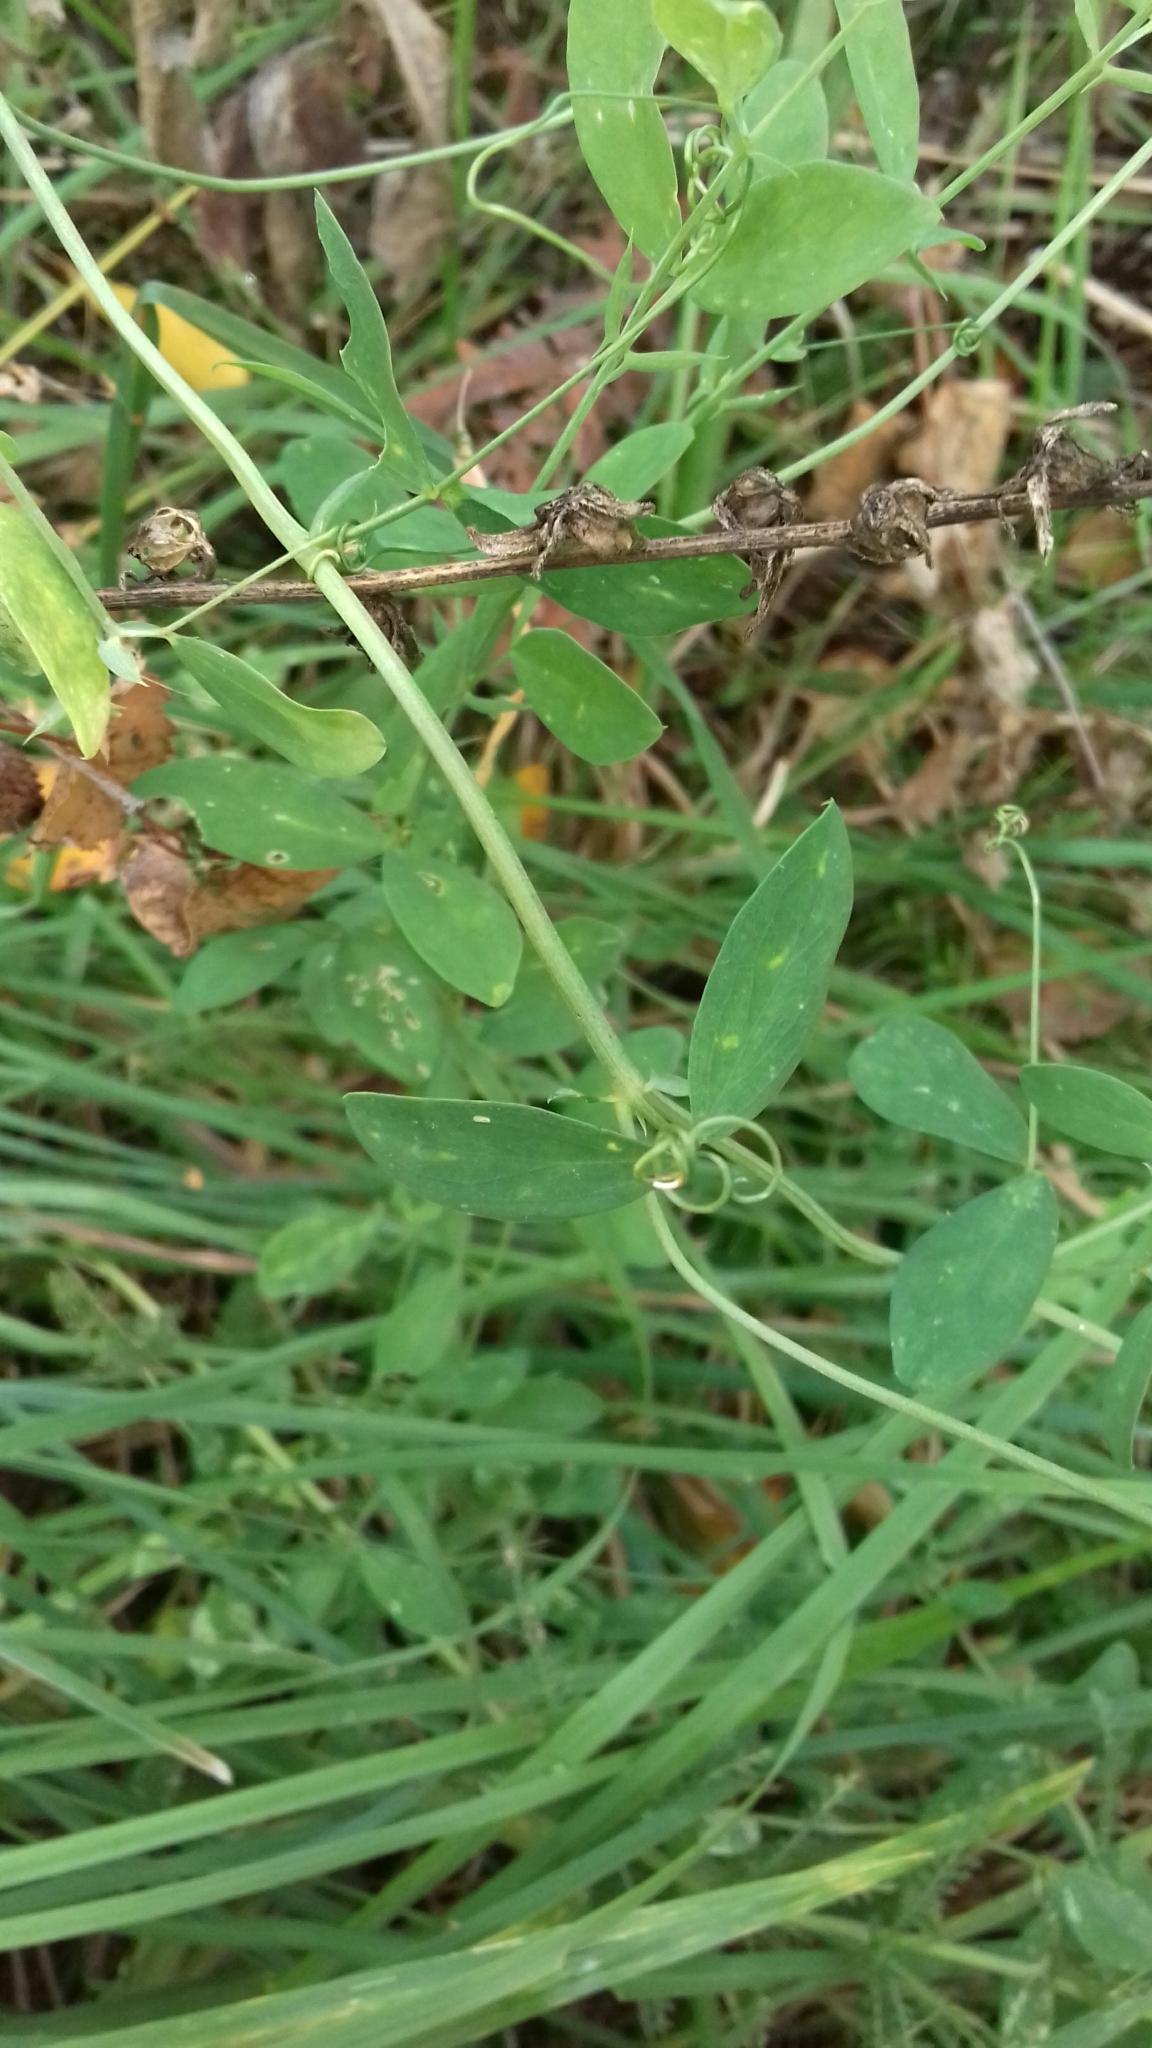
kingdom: Plantae
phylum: Tracheophyta
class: Magnoliopsida
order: Fabales
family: Fabaceae
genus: Lathyrus
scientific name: Lathyrus tuberosus
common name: Tuberous pea
